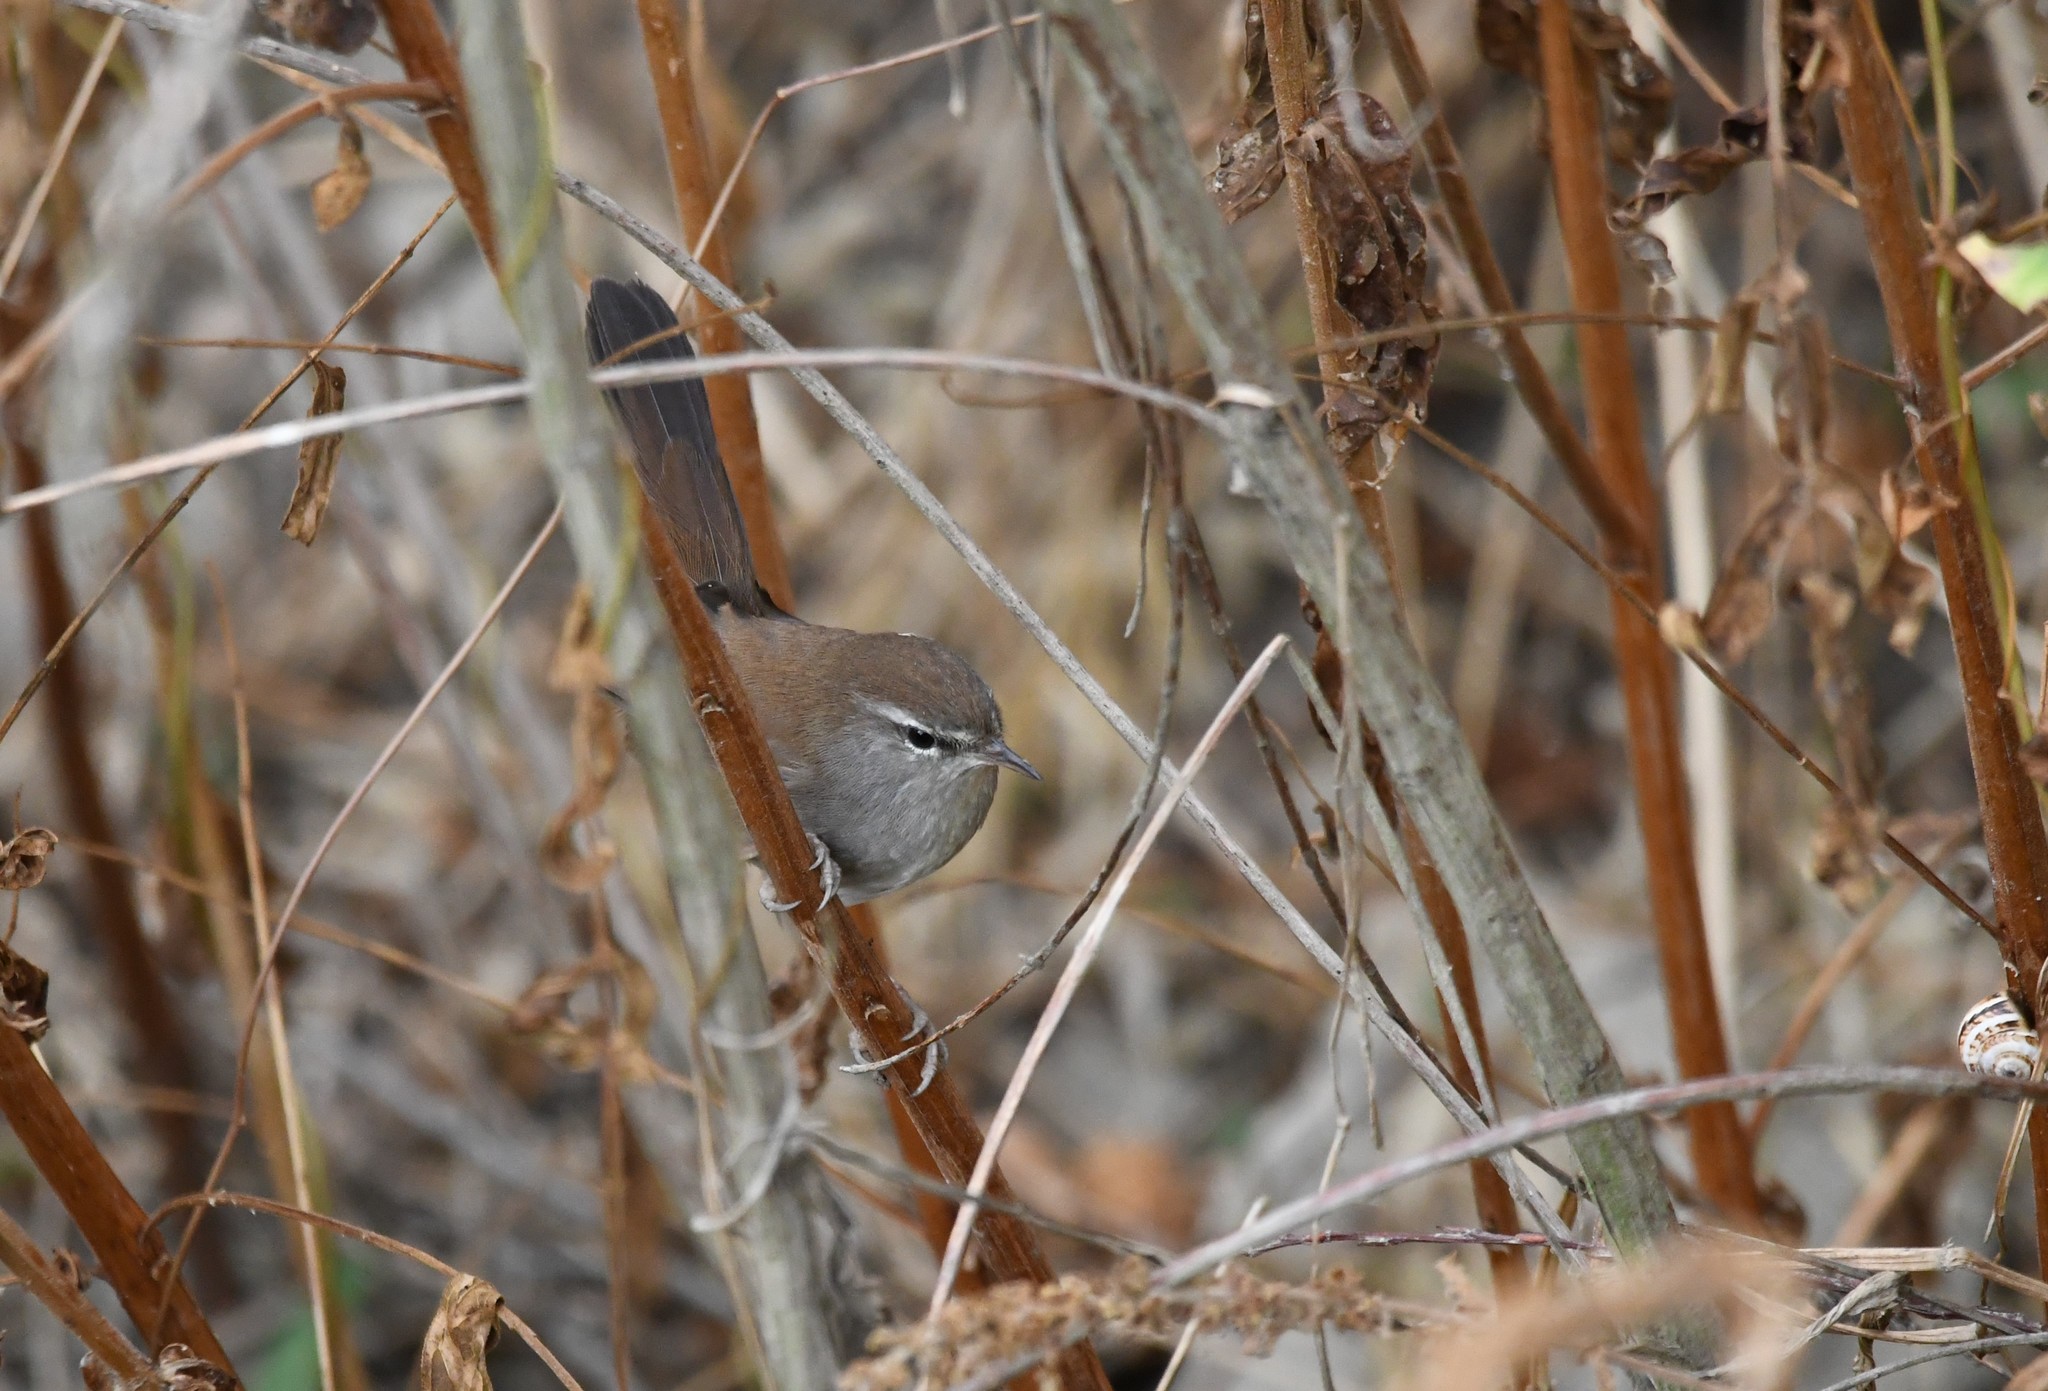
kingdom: Animalia
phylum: Chordata
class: Aves
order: Passeriformes
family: Cettiidae
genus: Cettia
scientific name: Cettia cetti
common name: Cetti's warbler
